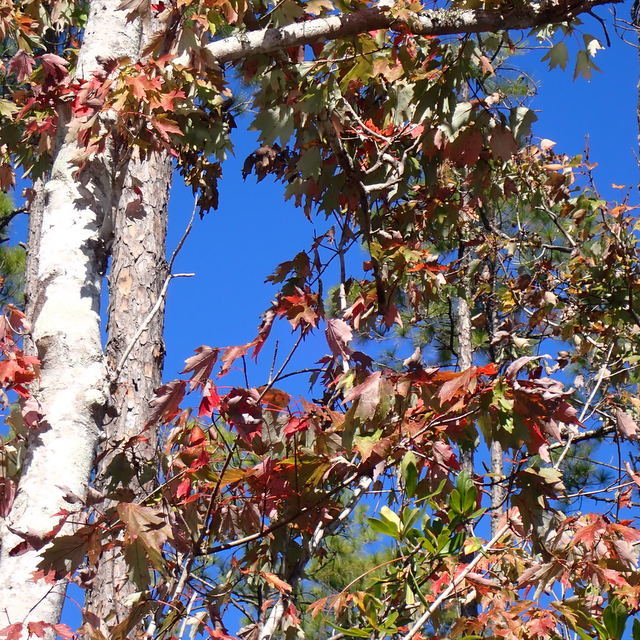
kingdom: Plantae
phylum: Tracheophyta
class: Magnoliopsida
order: Sapindales
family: Sapindaceae
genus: Acer
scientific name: Acer rubrum
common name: Red maple
